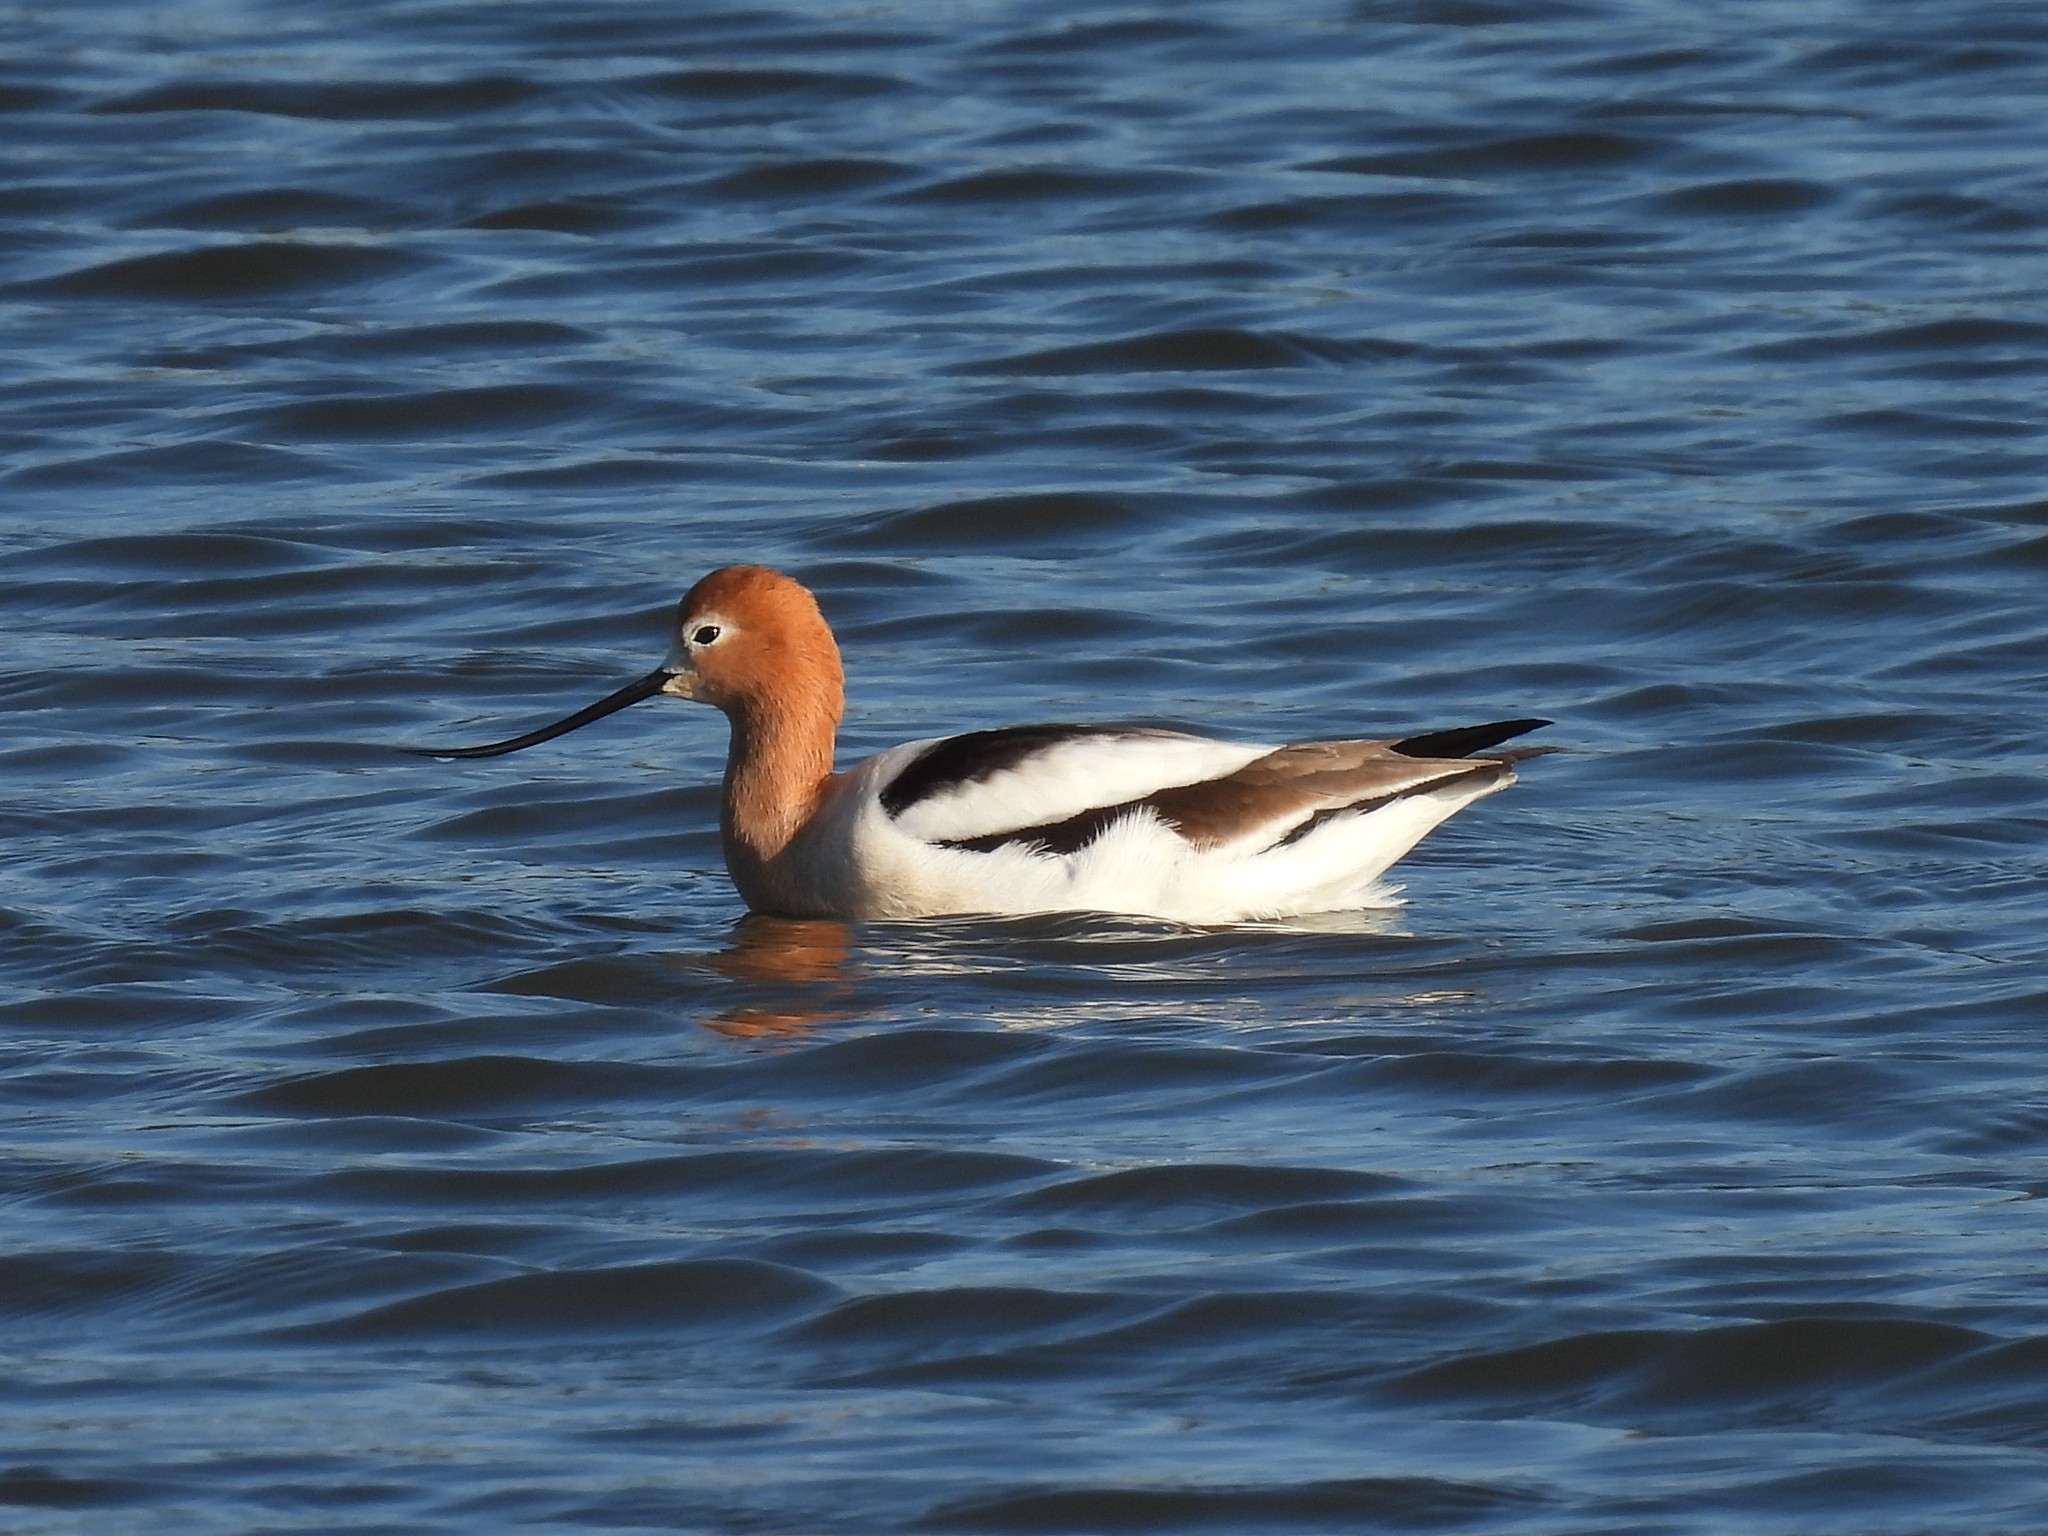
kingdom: Animalia
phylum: Chordata
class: Aves
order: Charadriiformes
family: Recurvirostridae
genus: Recurvirostra
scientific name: Recurvirostra americana
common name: American avocet
